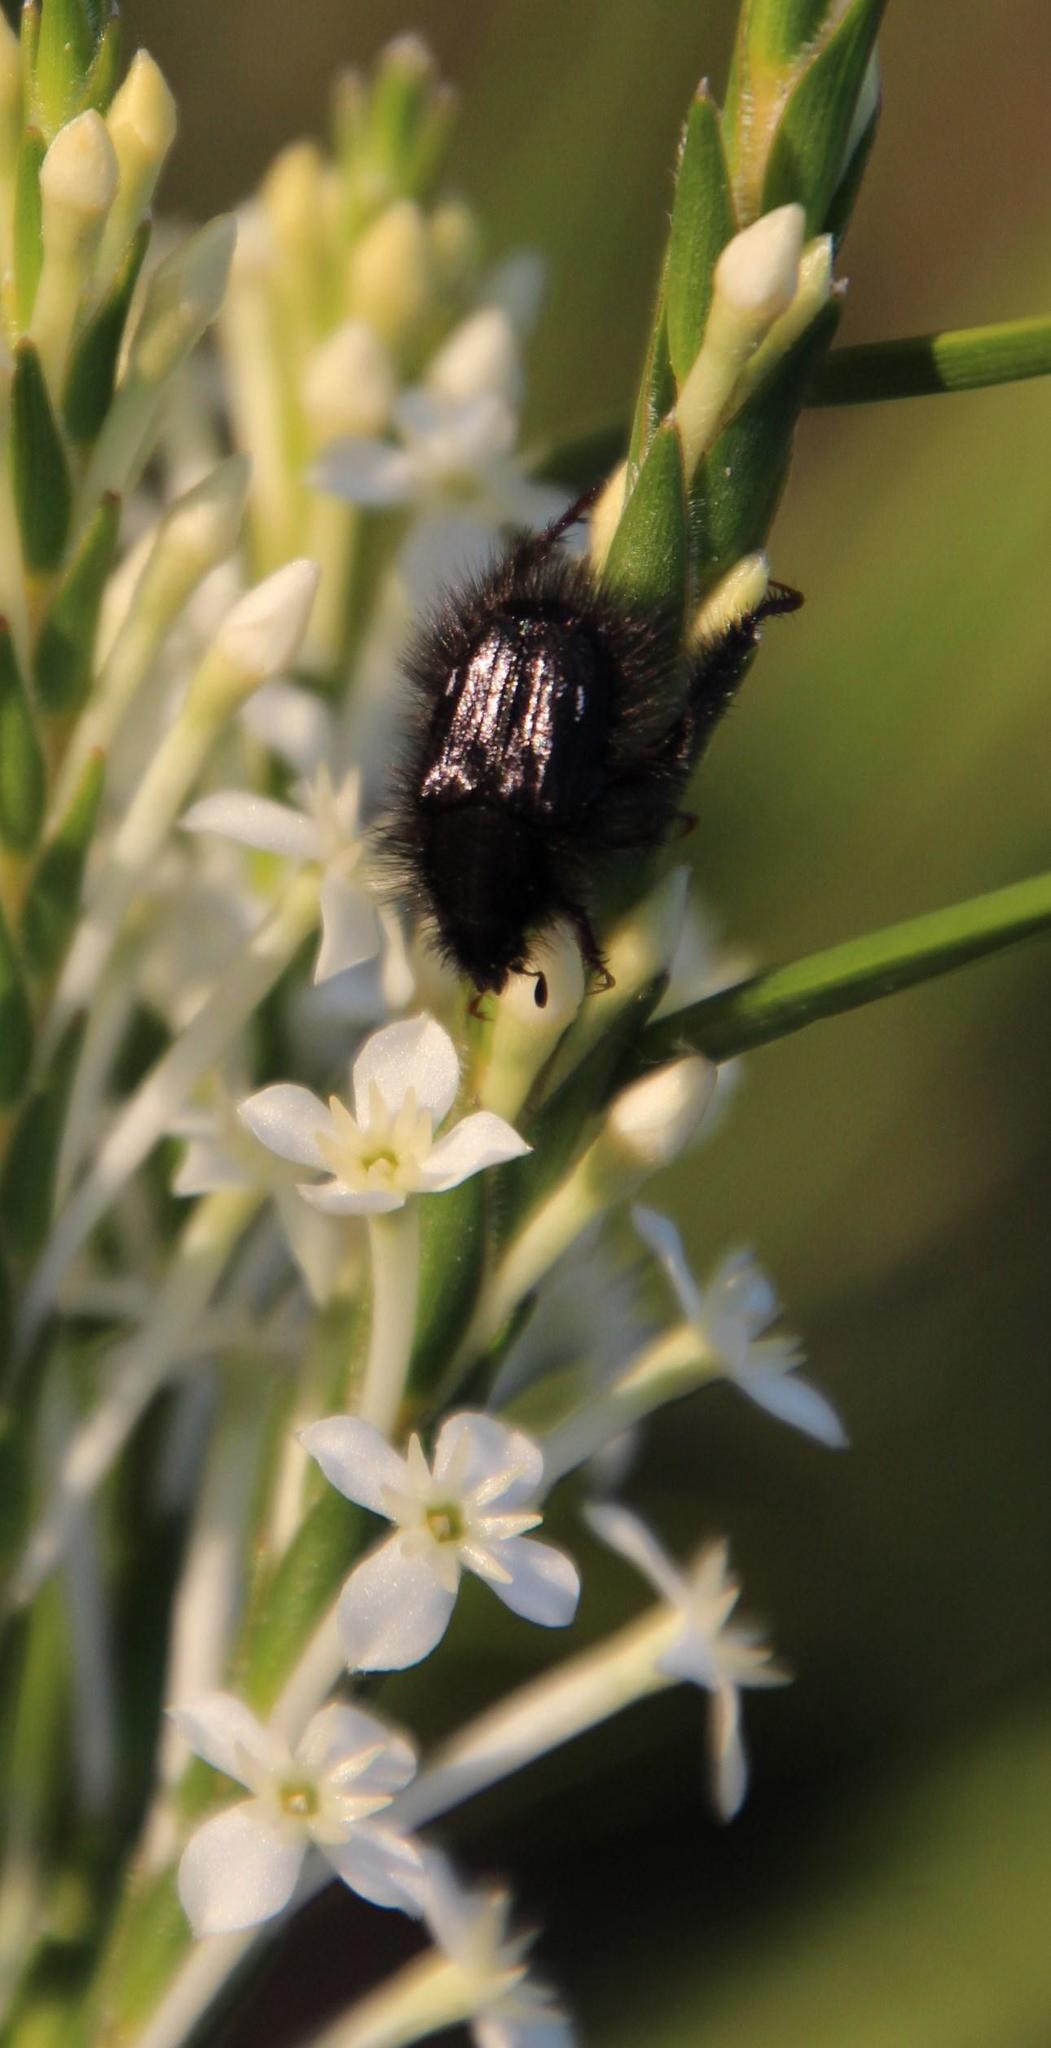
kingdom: Plantae
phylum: Tracheophyta
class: Magnoliopsida
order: Malvales
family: Thymelaeaceae
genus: Struthiola
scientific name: Struthiola ciliata
